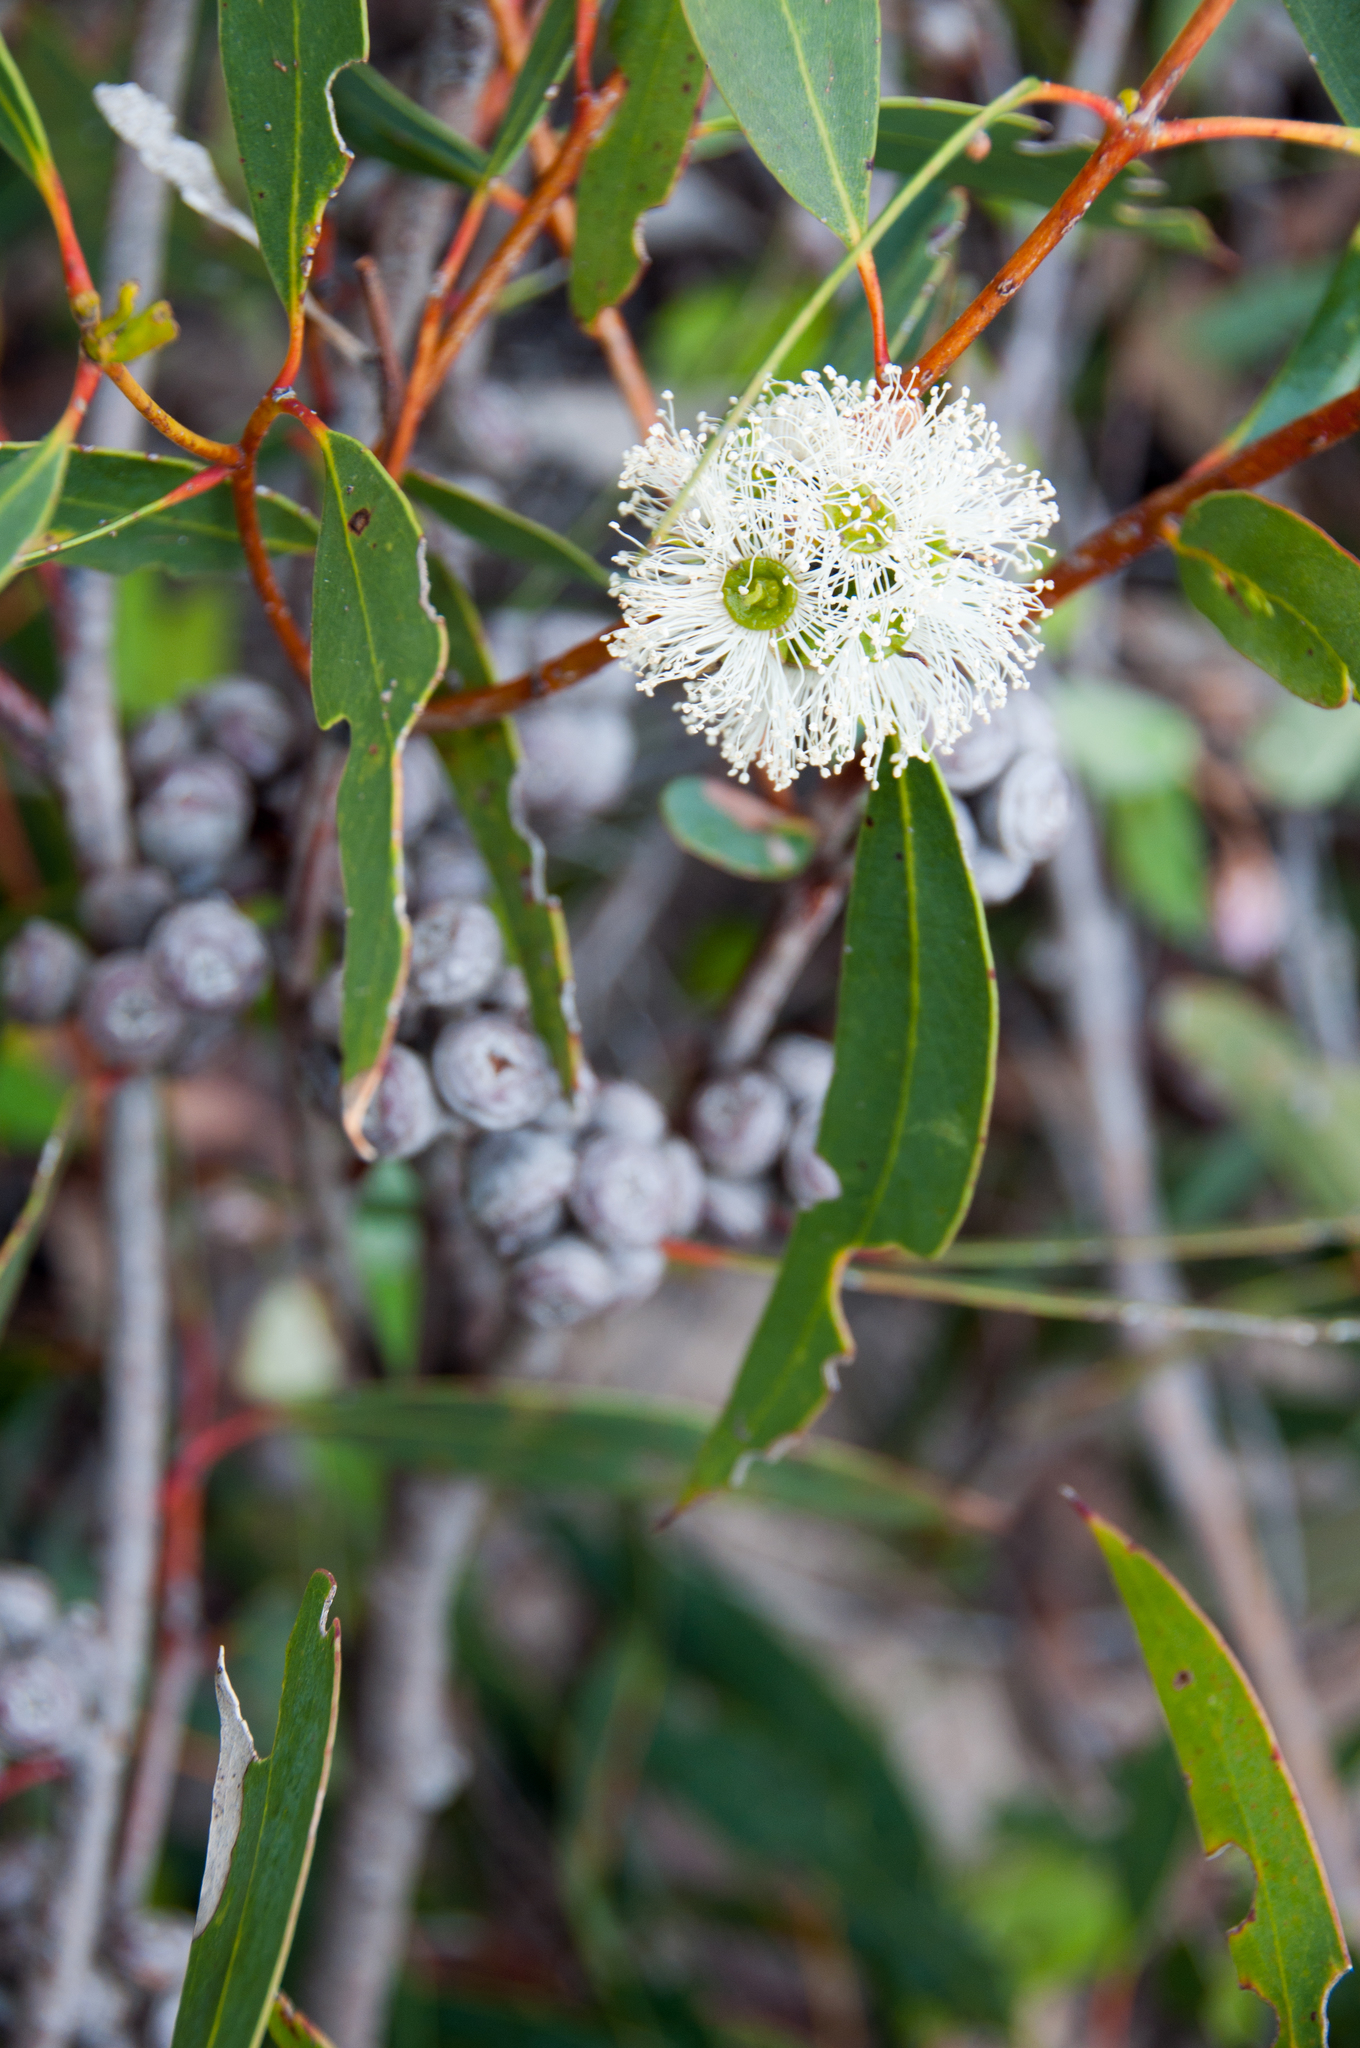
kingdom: Plantae
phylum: Tracheophyta
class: Magnoliopsida
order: Myrtales
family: Myrtaceae
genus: Eucalyptus
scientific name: Eucalyptus diversifolia
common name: Coastal white mallee
